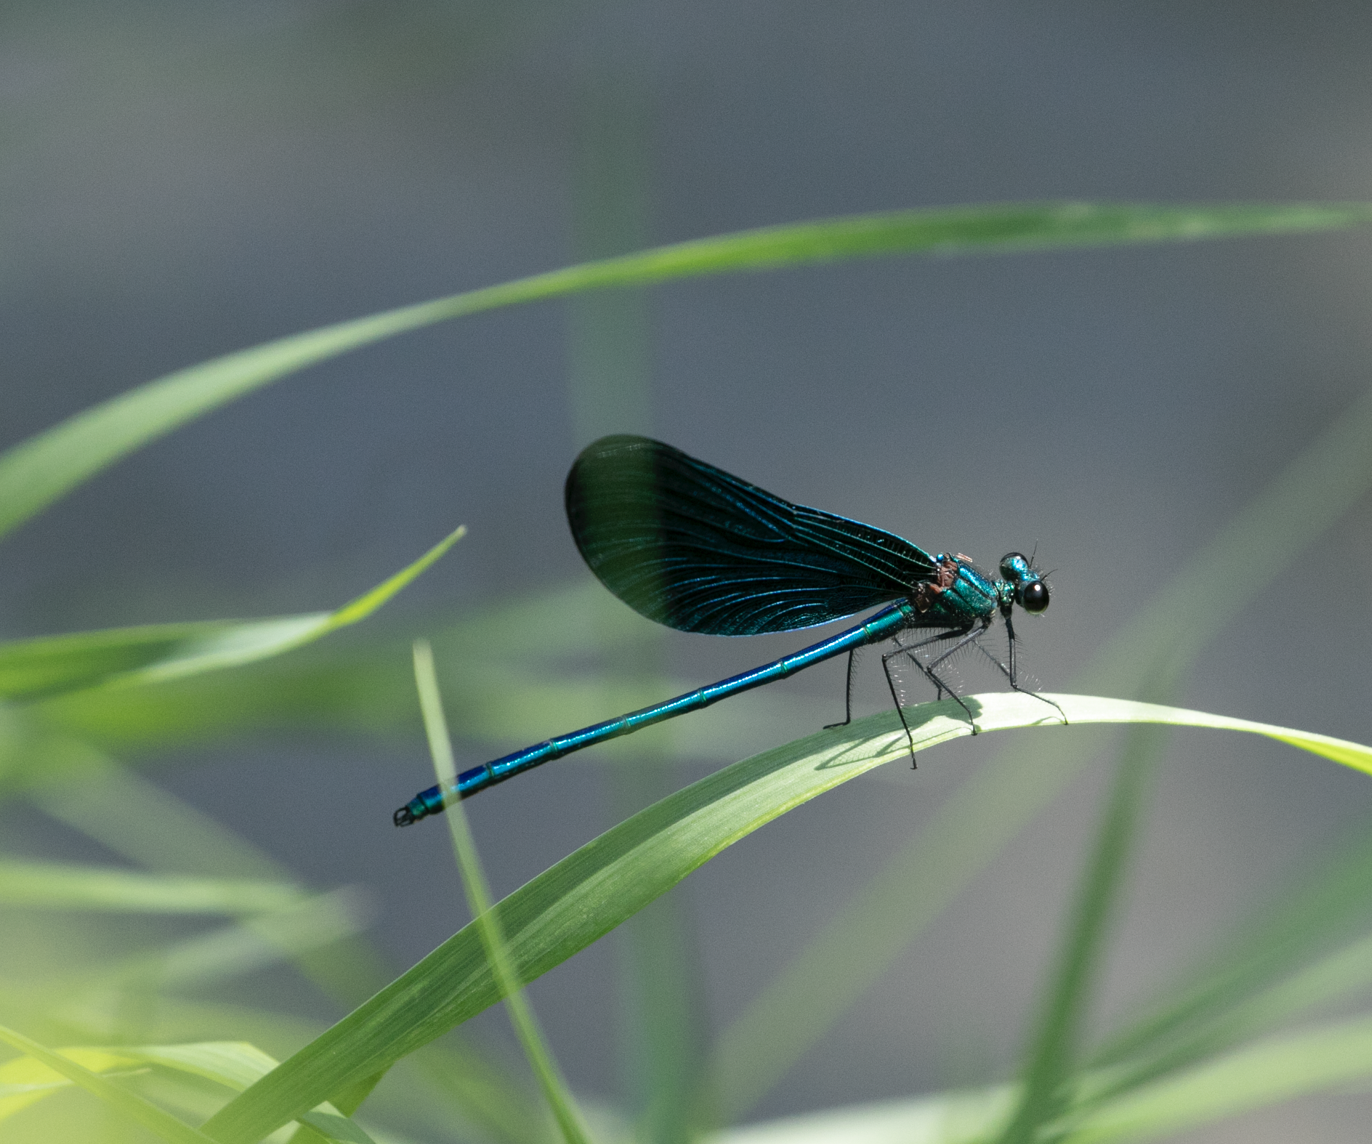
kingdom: Animalia
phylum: Arthropoda
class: Insecta
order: Odonata
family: Calopterygidae
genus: Calopteryx
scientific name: Calopteryx virgo
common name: Beautiful demoiselle
